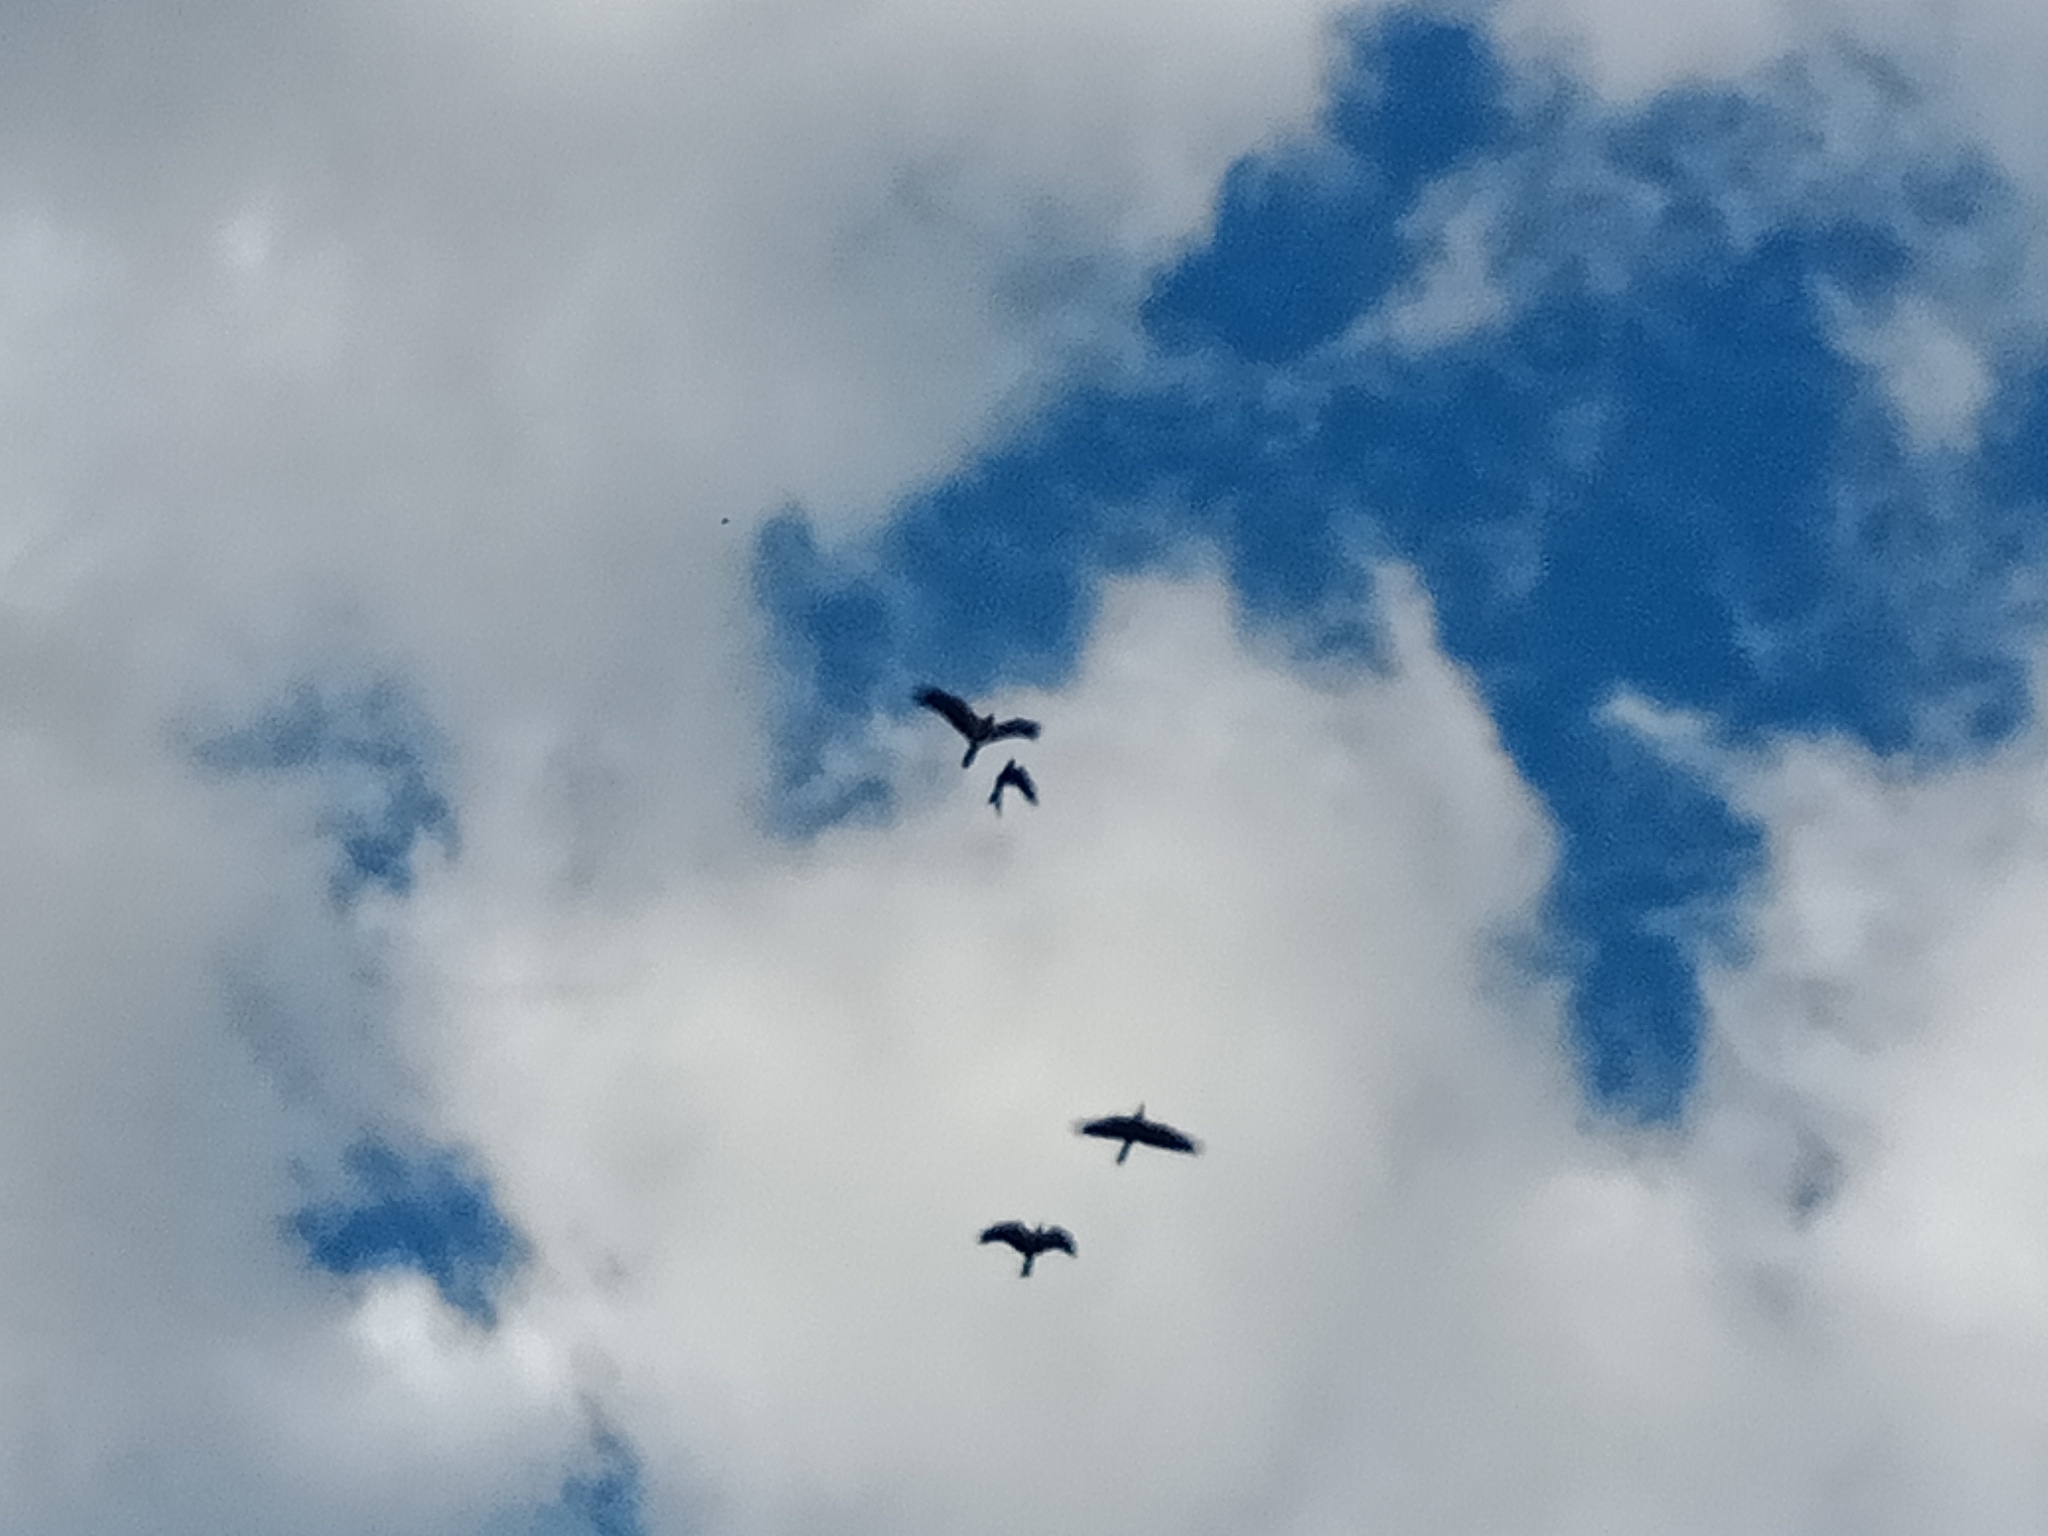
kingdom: Animalia
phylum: Chordata
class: Aves
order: Accipitriformes
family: Accipitridae
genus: Haliastur
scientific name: Haliastur sphenurus
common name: Whistling kite
